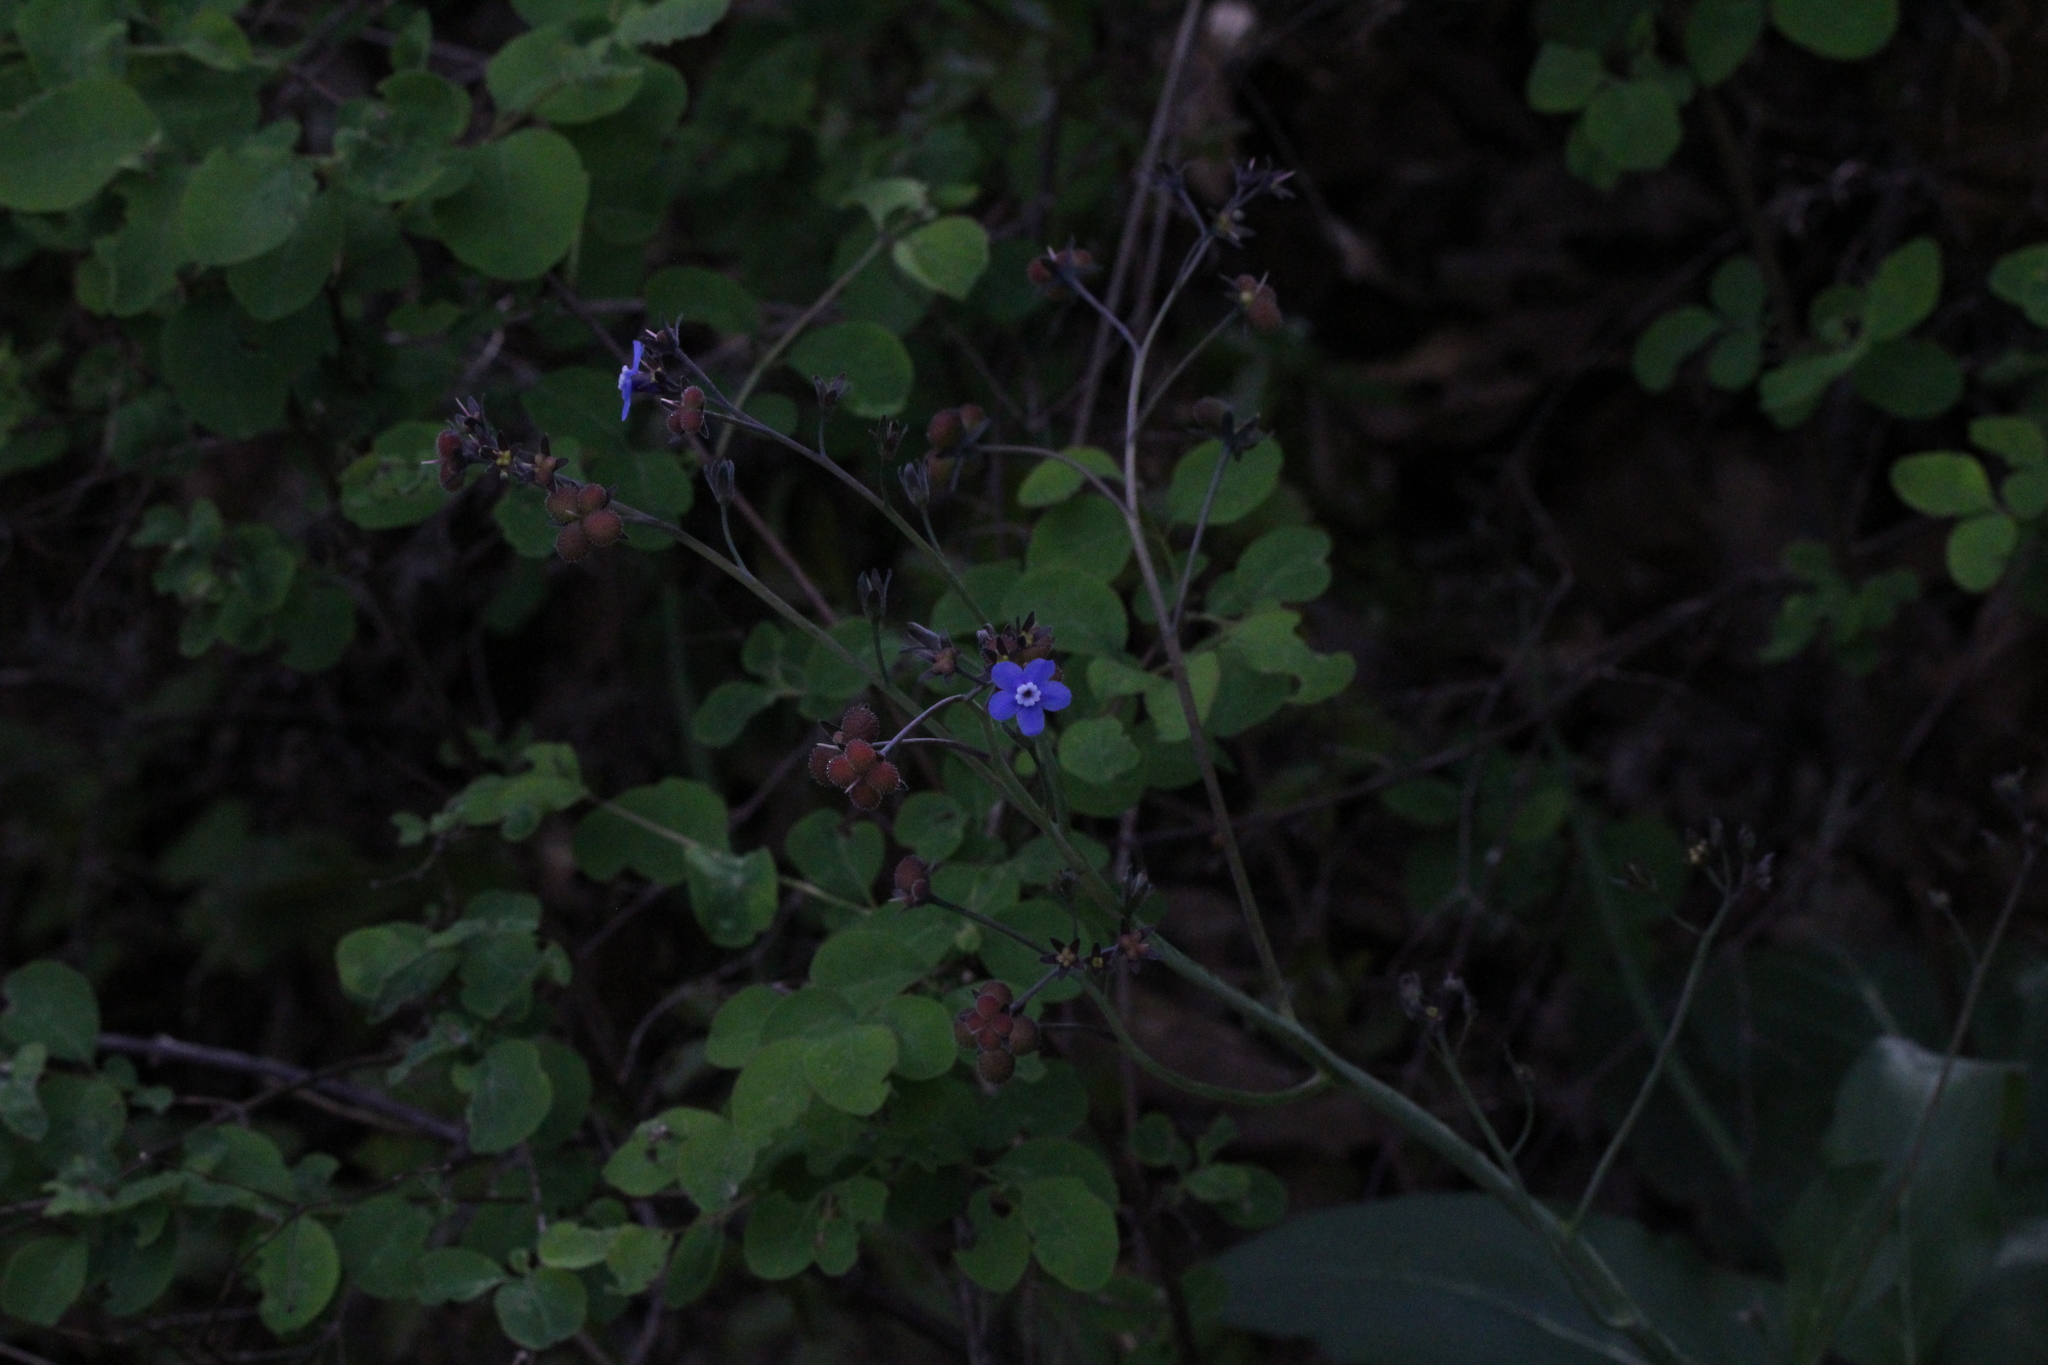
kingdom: Plantae
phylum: Tracheophyta
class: Magnoliopsida
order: Boraginales
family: Boraginaceae
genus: Adelinia
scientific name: Adelinia grande
